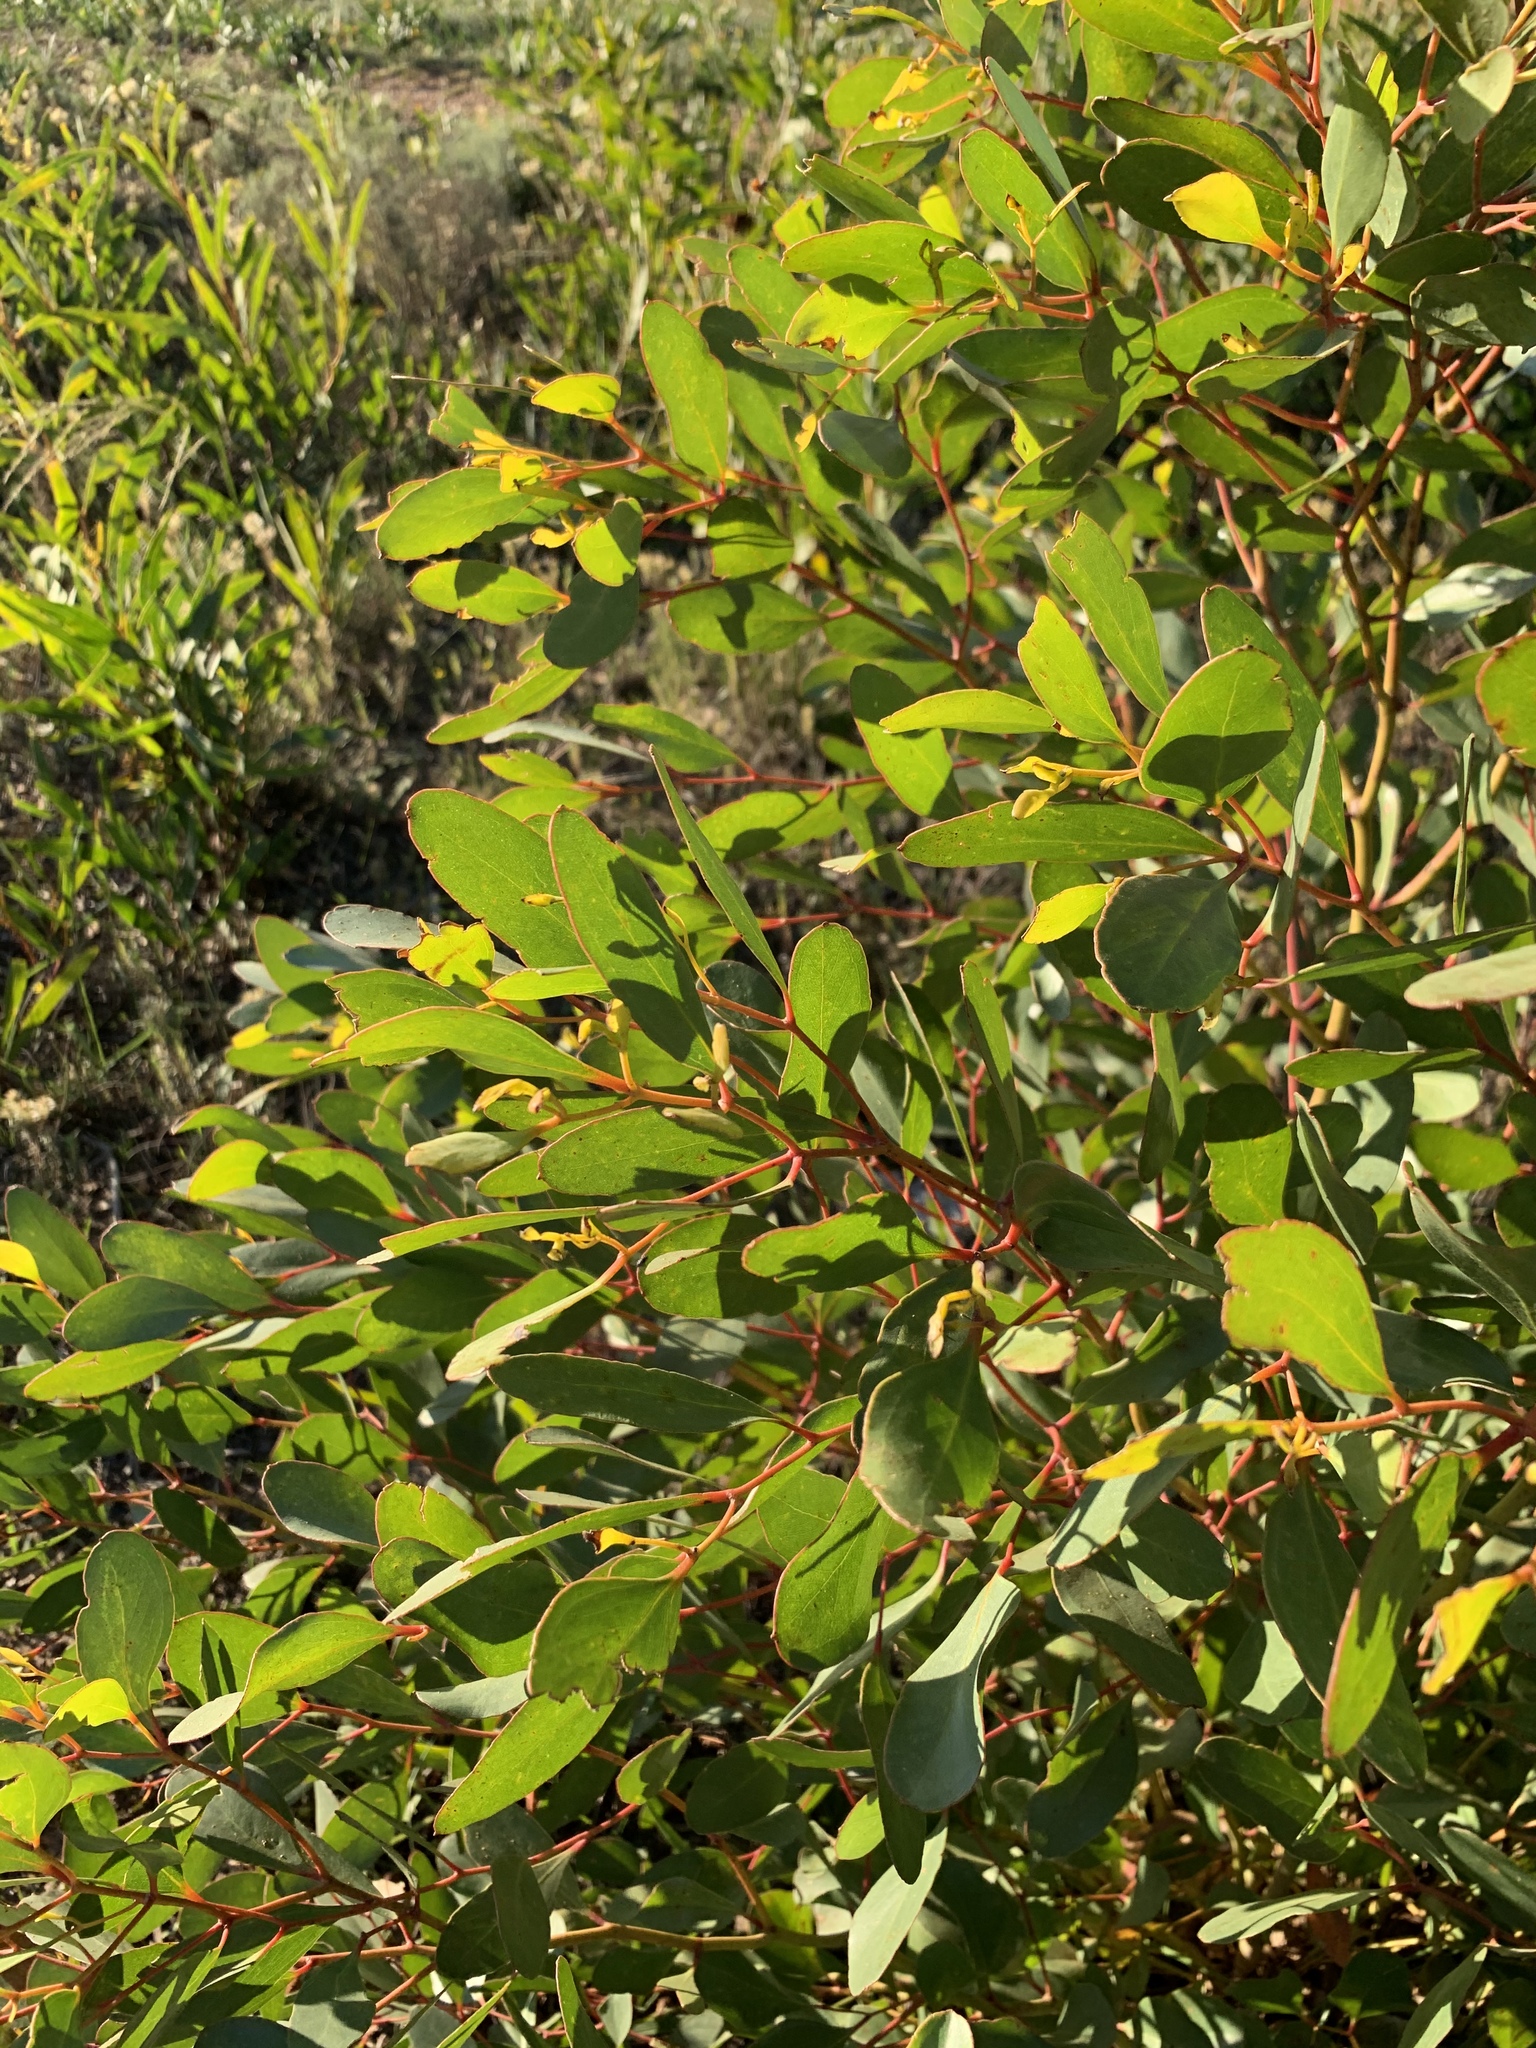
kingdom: Plantae
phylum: Tracheophyta
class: Magnoliopsida
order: Myrtales
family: Myrtaceae
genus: Eucalyptus
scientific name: Eucalyptus conferruminata
